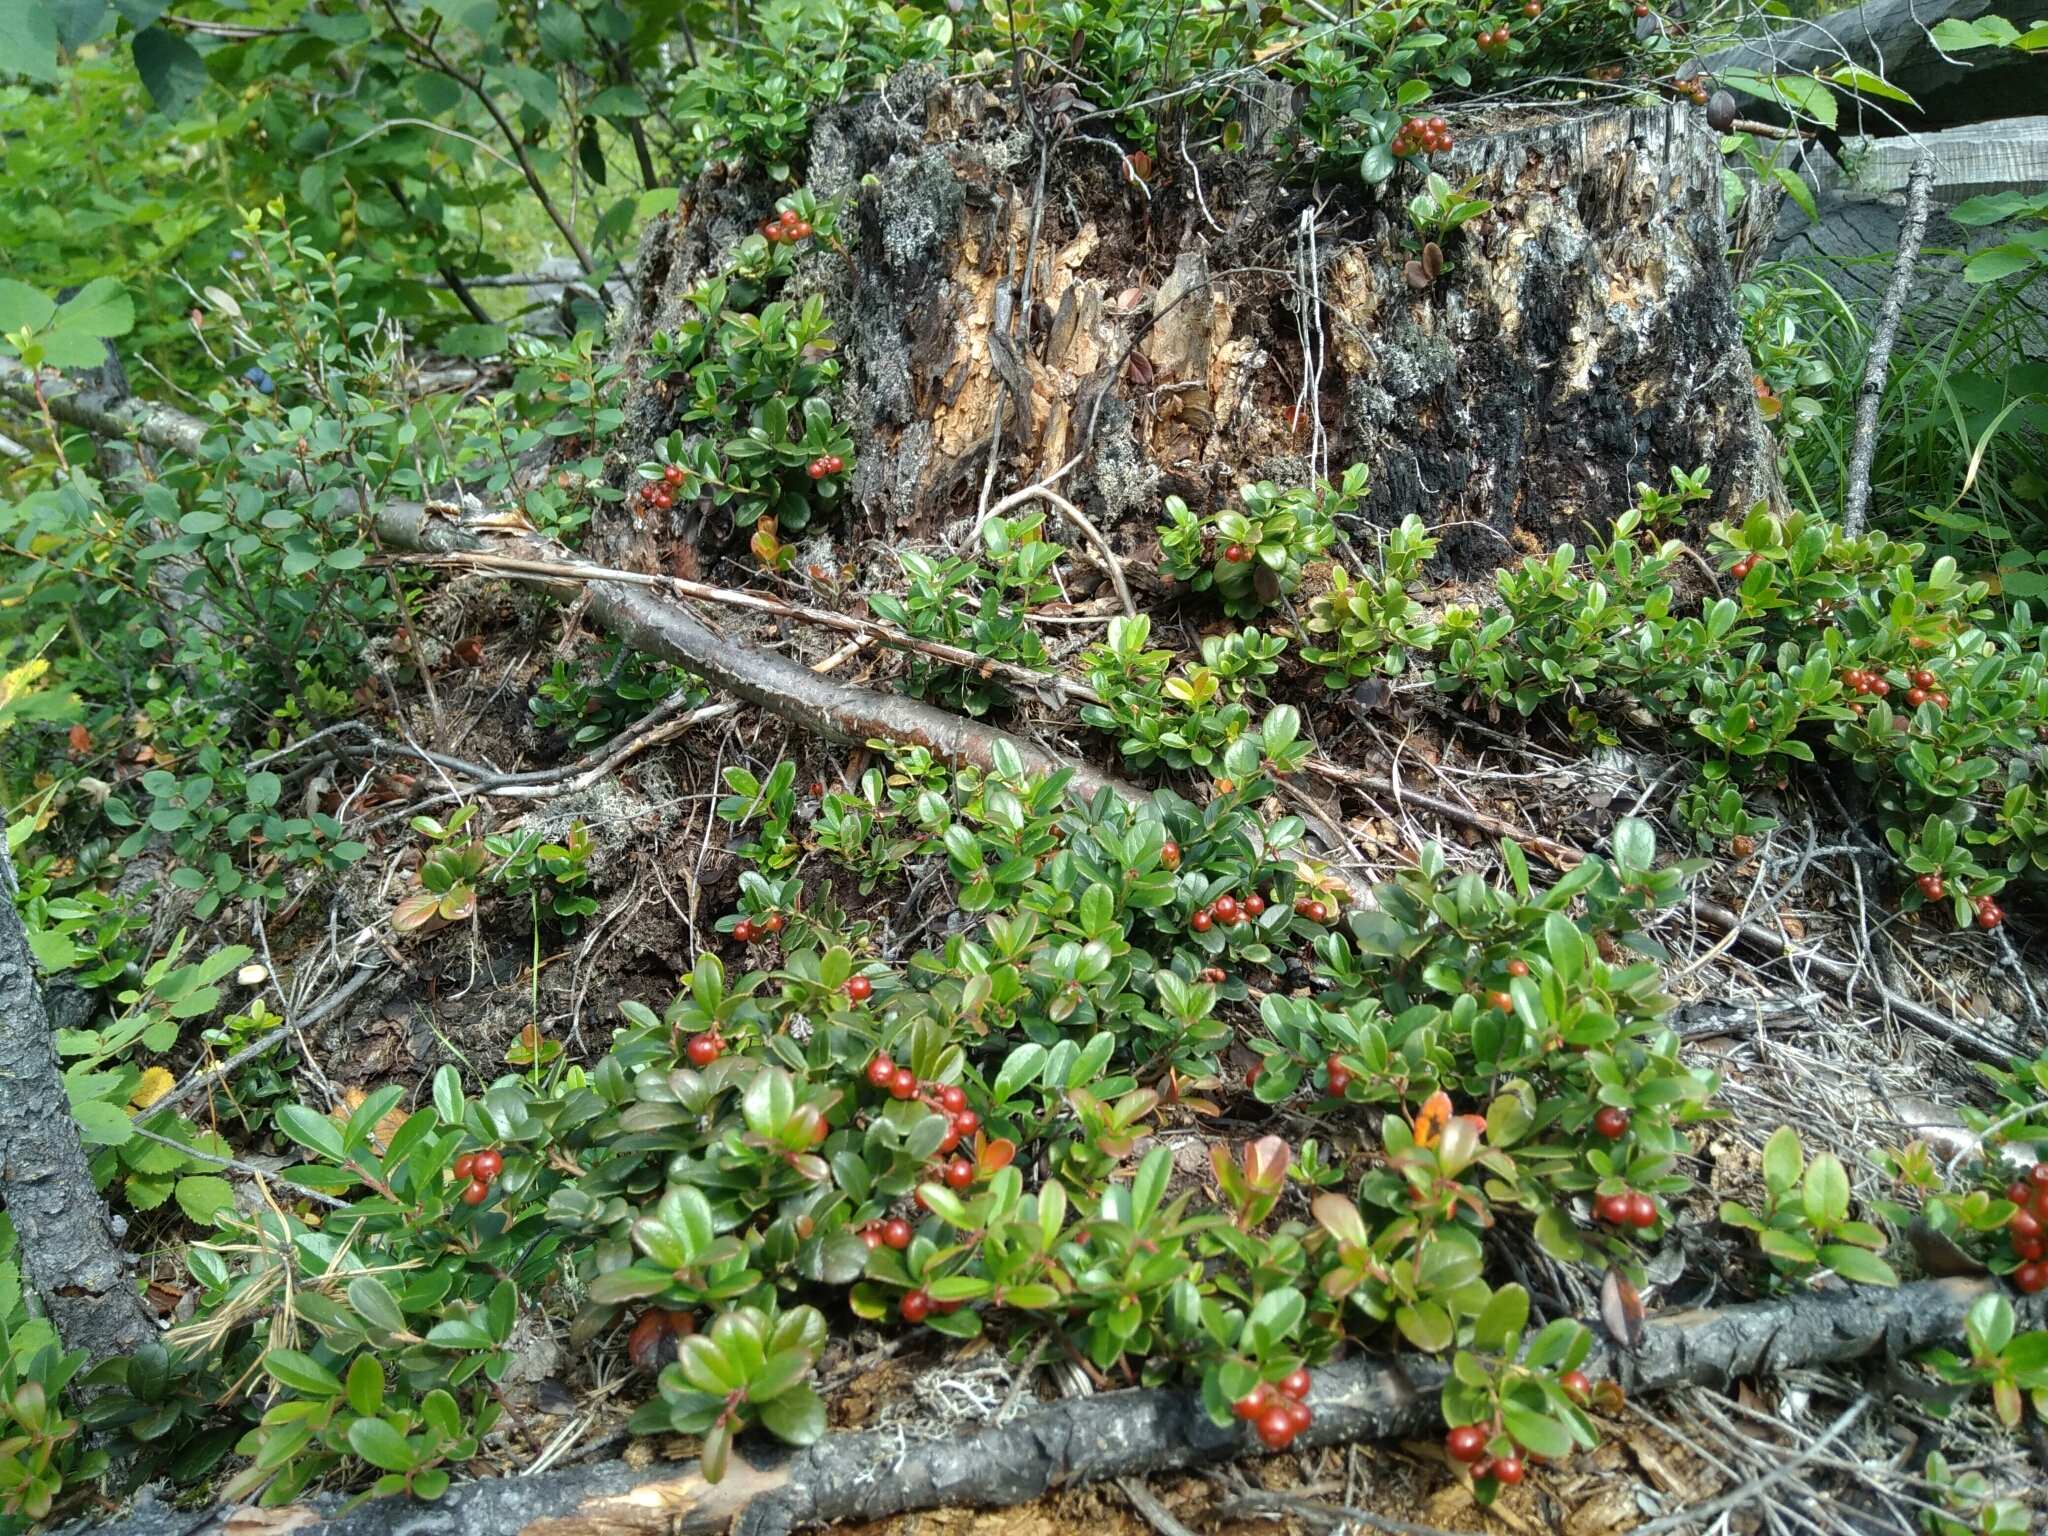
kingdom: Plantae
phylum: Tracheophyta
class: Magnoliopsida
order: Ericales
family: Ericaceae
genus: Vaccinium
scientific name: Vaccinium vitis-idaea
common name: Cowberry
